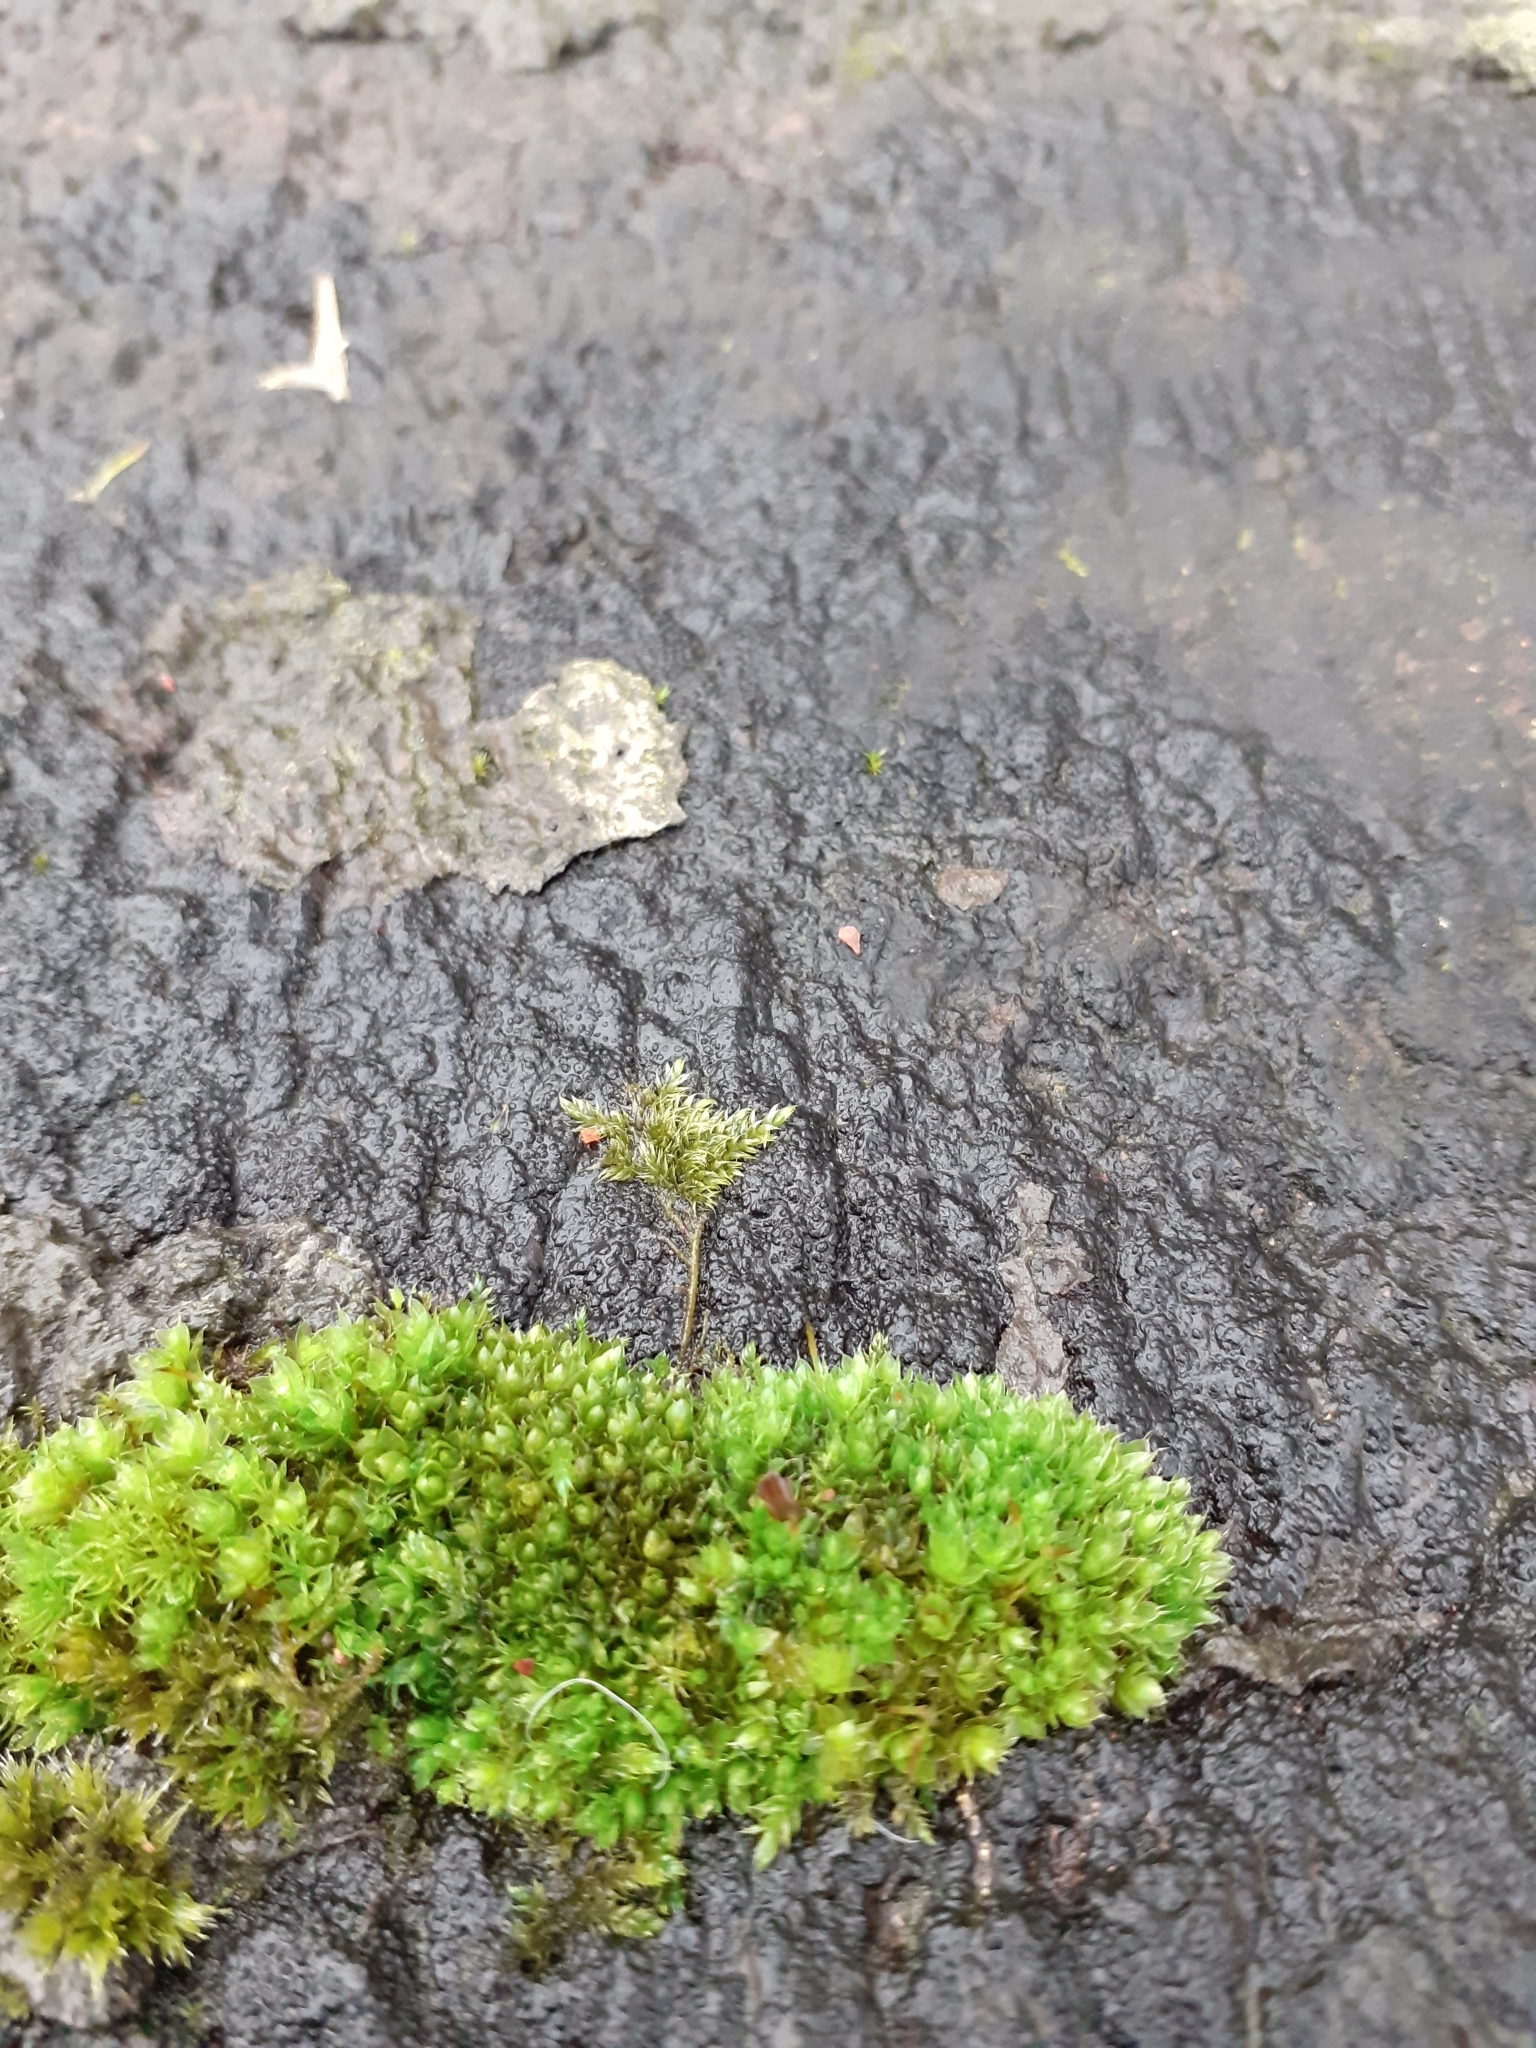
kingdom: Plantae
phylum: Bryophyta
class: Bryopsida
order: Bryales
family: Bryaceae
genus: Rosulabryum
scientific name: Rosulabryum capillare
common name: Capillary thread-moss
